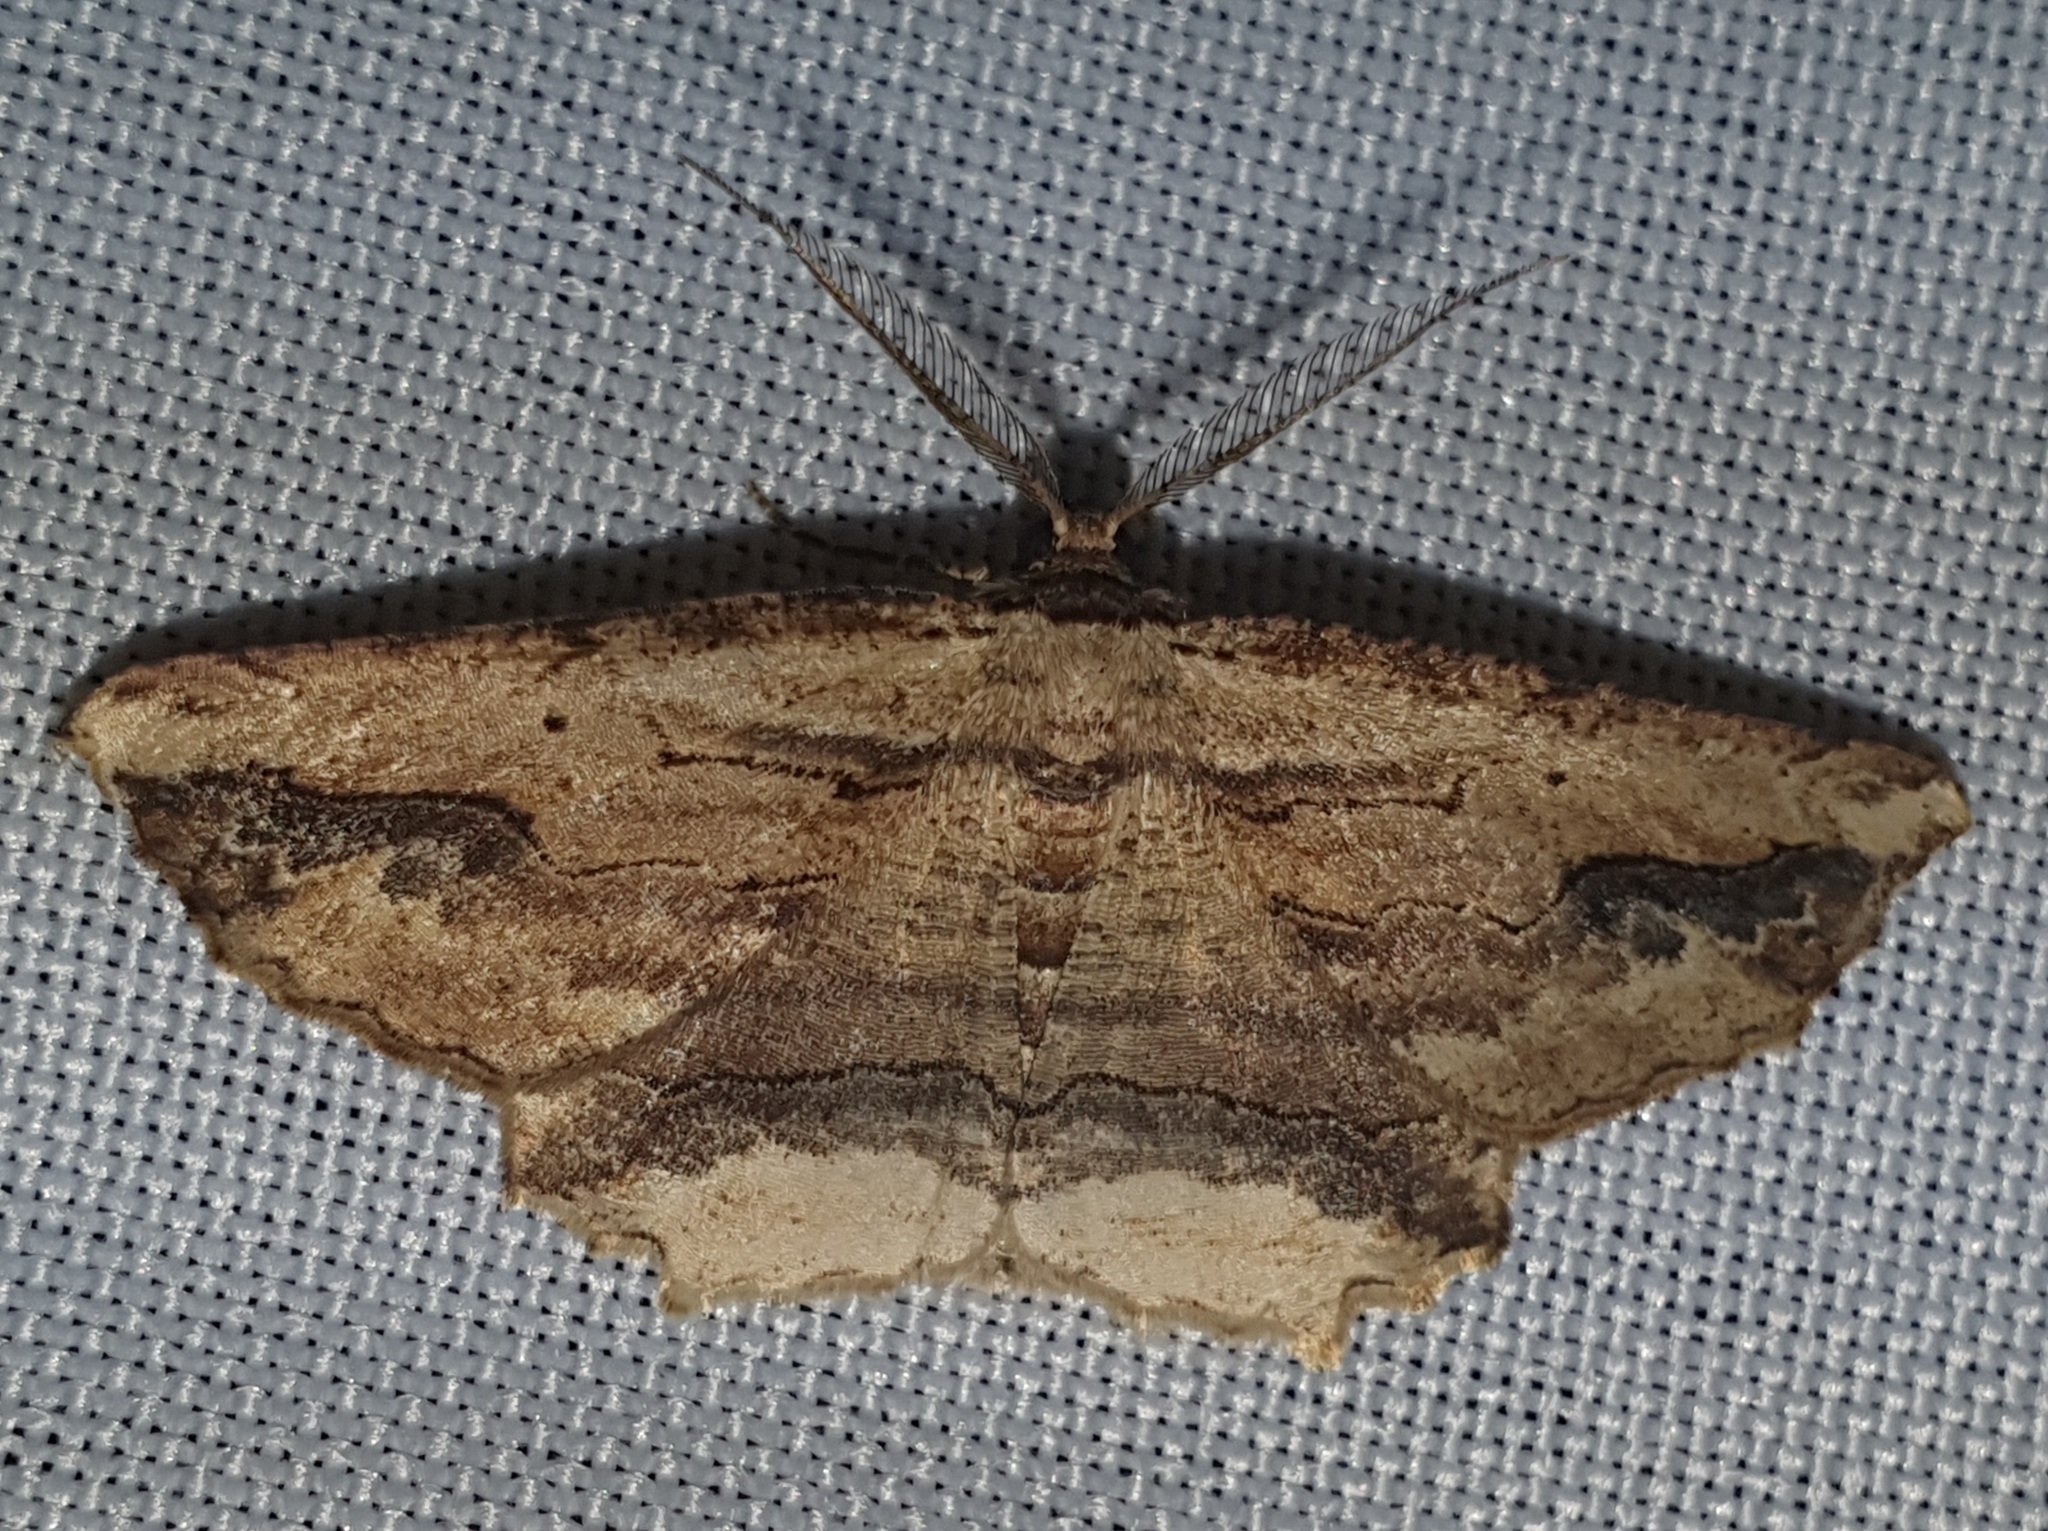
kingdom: Animalia
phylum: Arthropoda
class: Insecta
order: Lepidoptera
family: Geometridae
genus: Menophra
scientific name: Menophra abruptaria
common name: Waved umber
